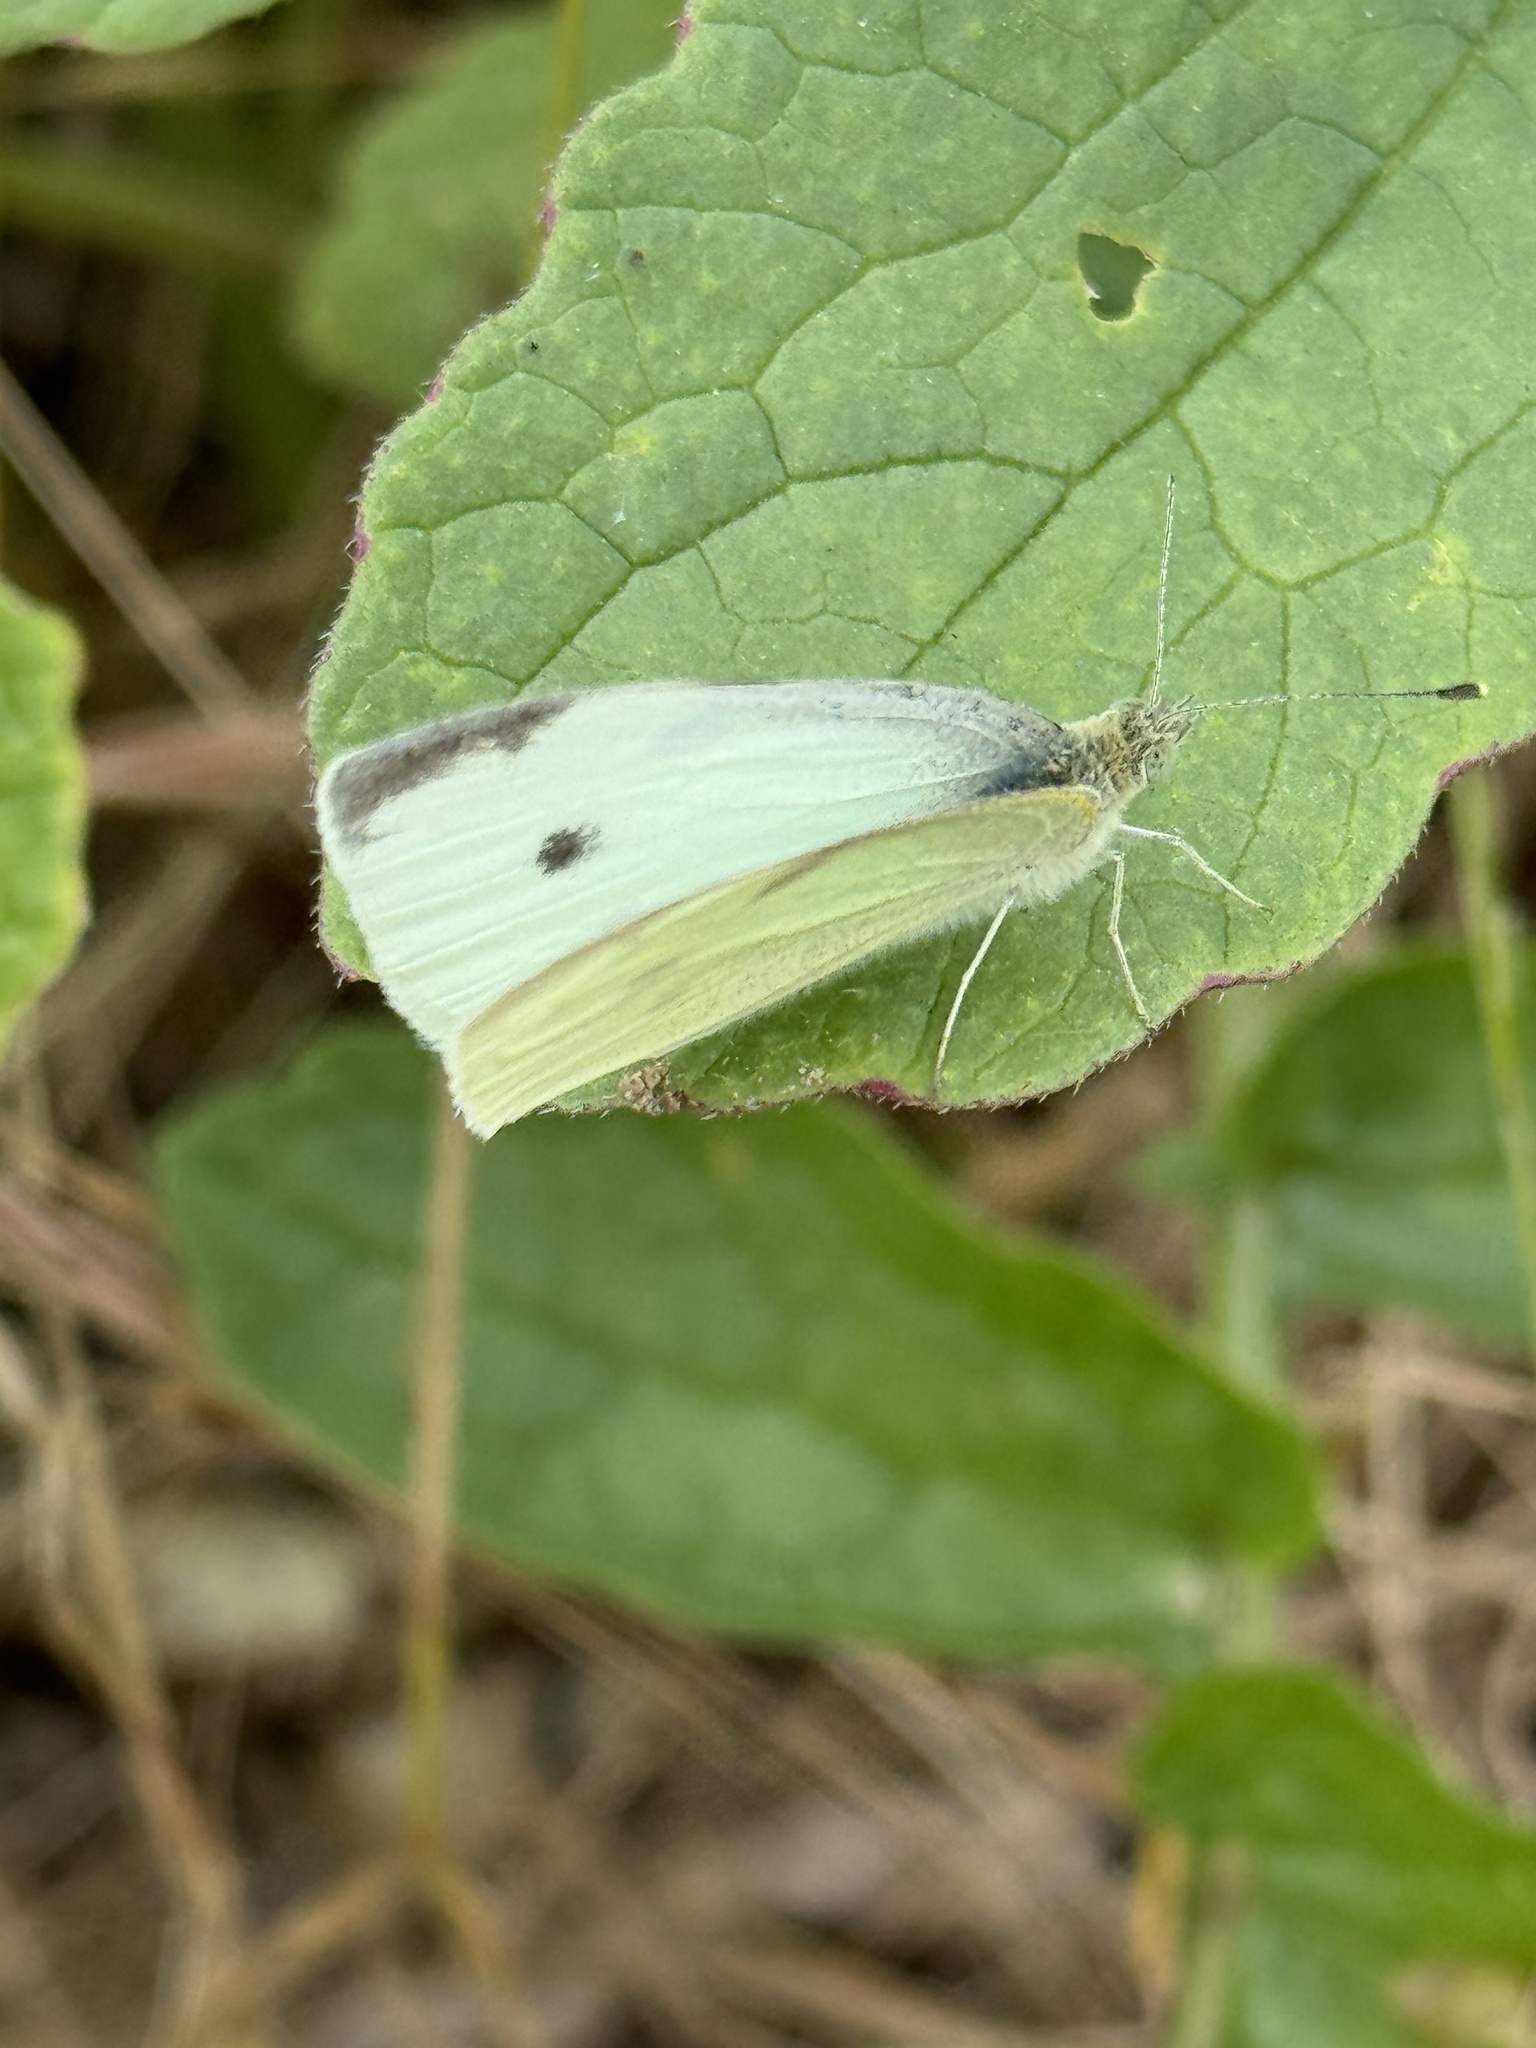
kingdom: Animalia
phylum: Arthropoda
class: Insecta
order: Lepidoptera
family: Pieridae
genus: Pieris
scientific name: Pieris rapae
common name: Small white
